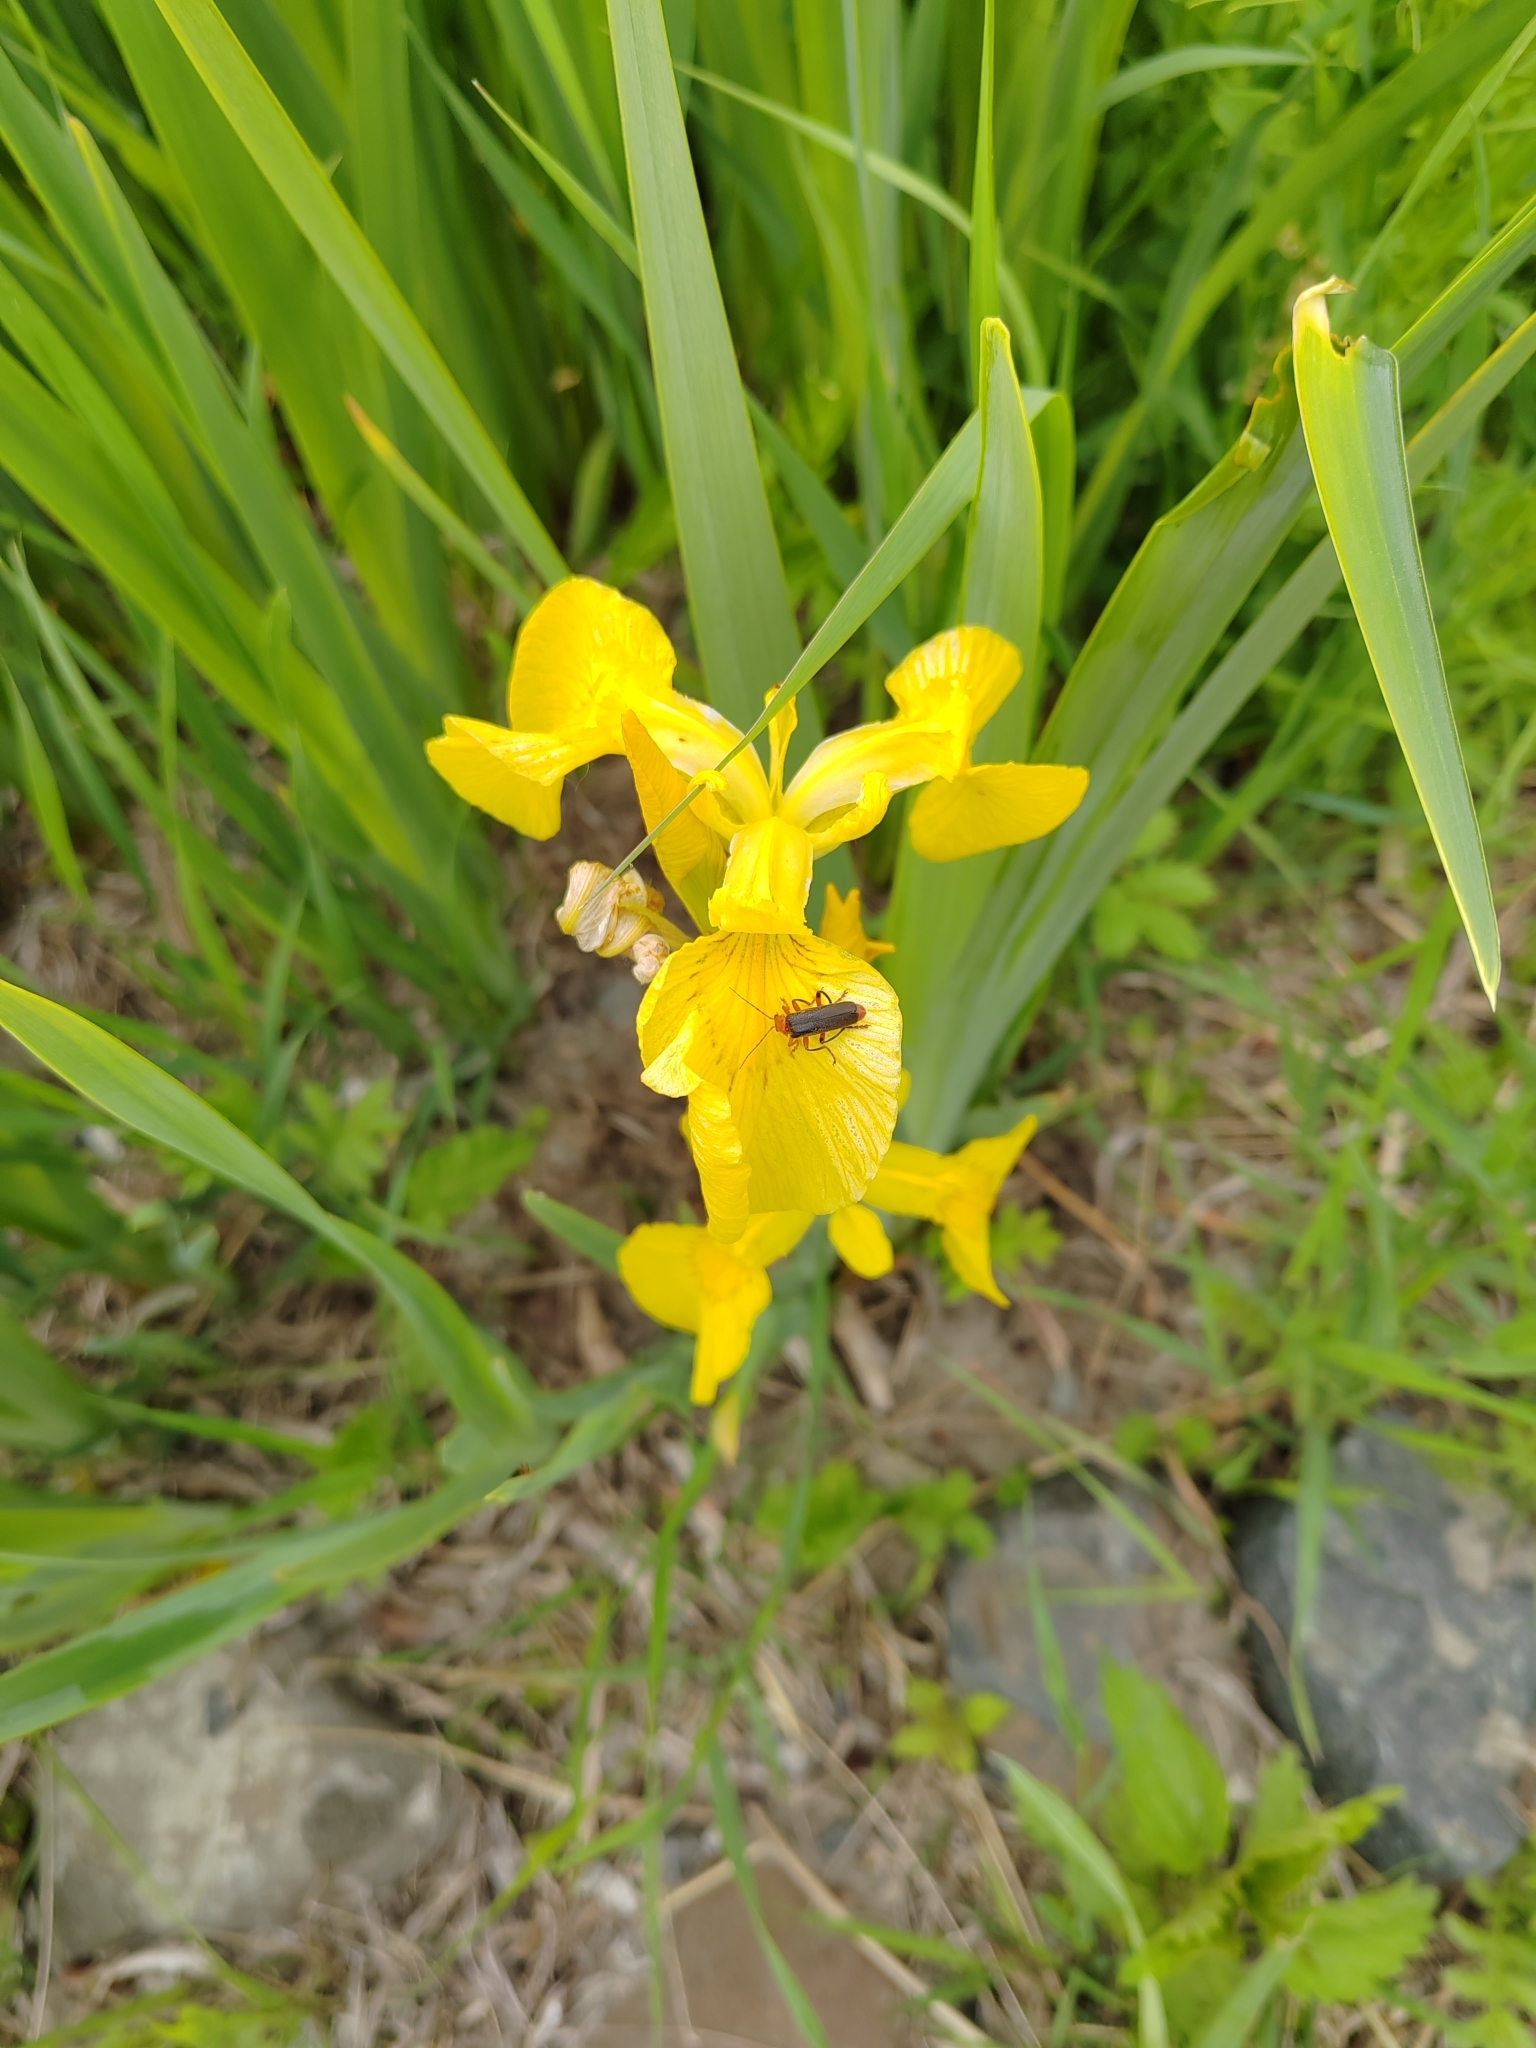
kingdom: Plantae
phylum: Tracheophyta
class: Liliopsida
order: Asparagales
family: Iridaceae
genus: Iris
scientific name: Iris pseudacorus
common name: Yellow flag
